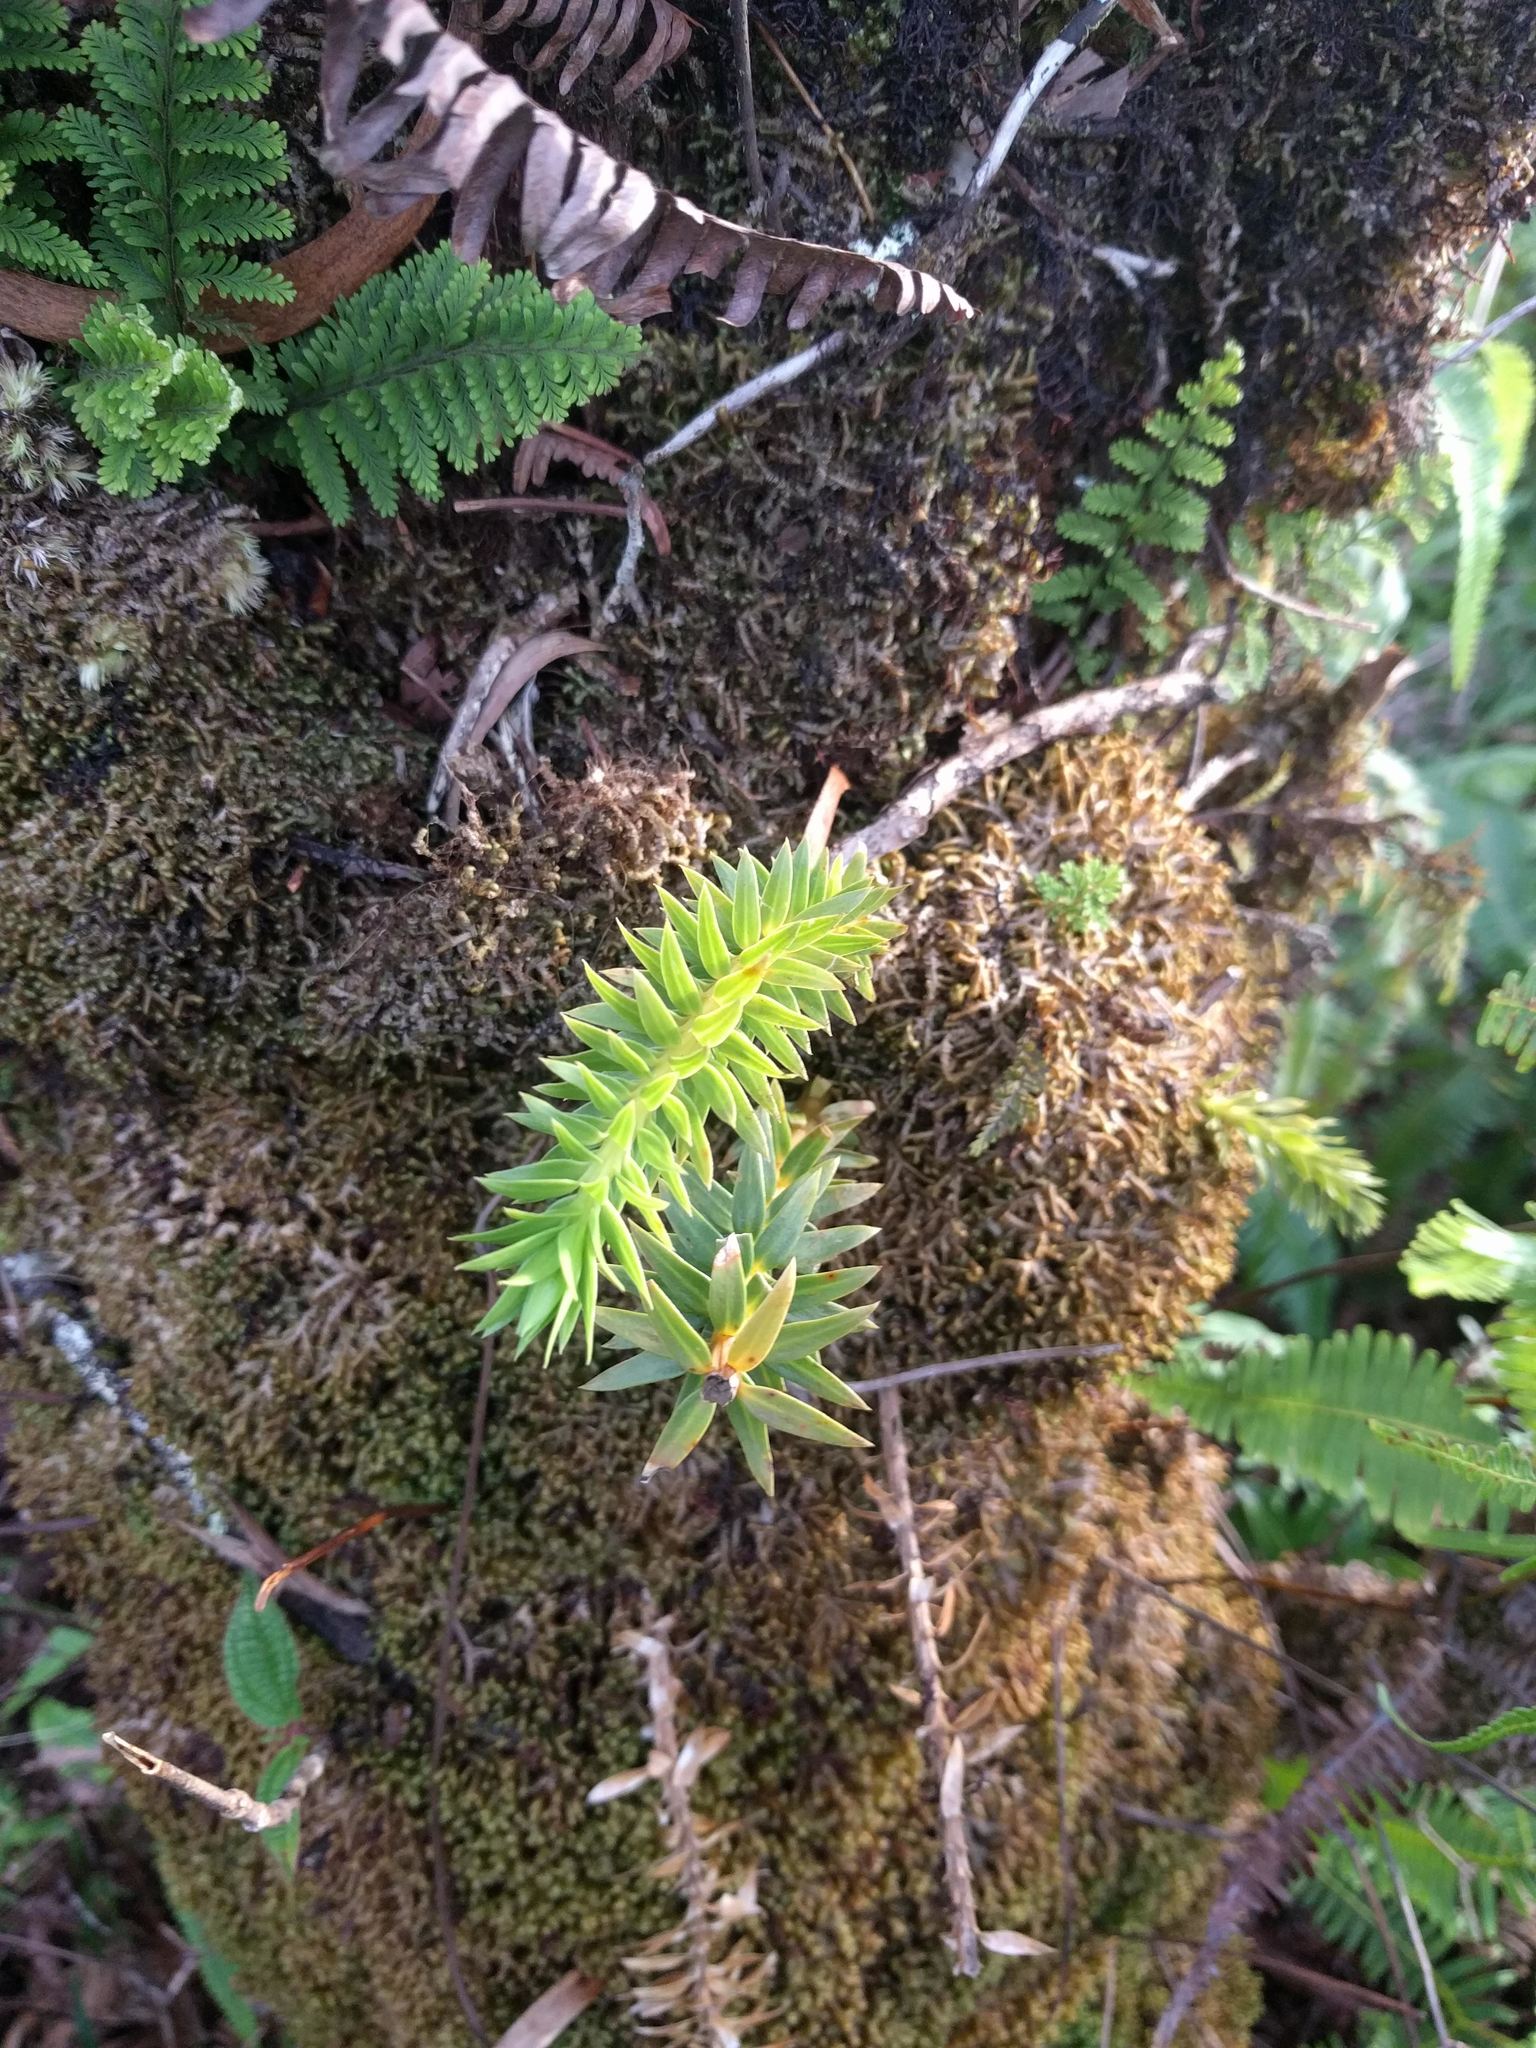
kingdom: Plantae
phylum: Tracheophyta
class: Lycopodiopsida
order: Lycopodiales
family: Lycopodiaceae
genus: Phlegmariurus
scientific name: Phlegmariurus phyllanthus
